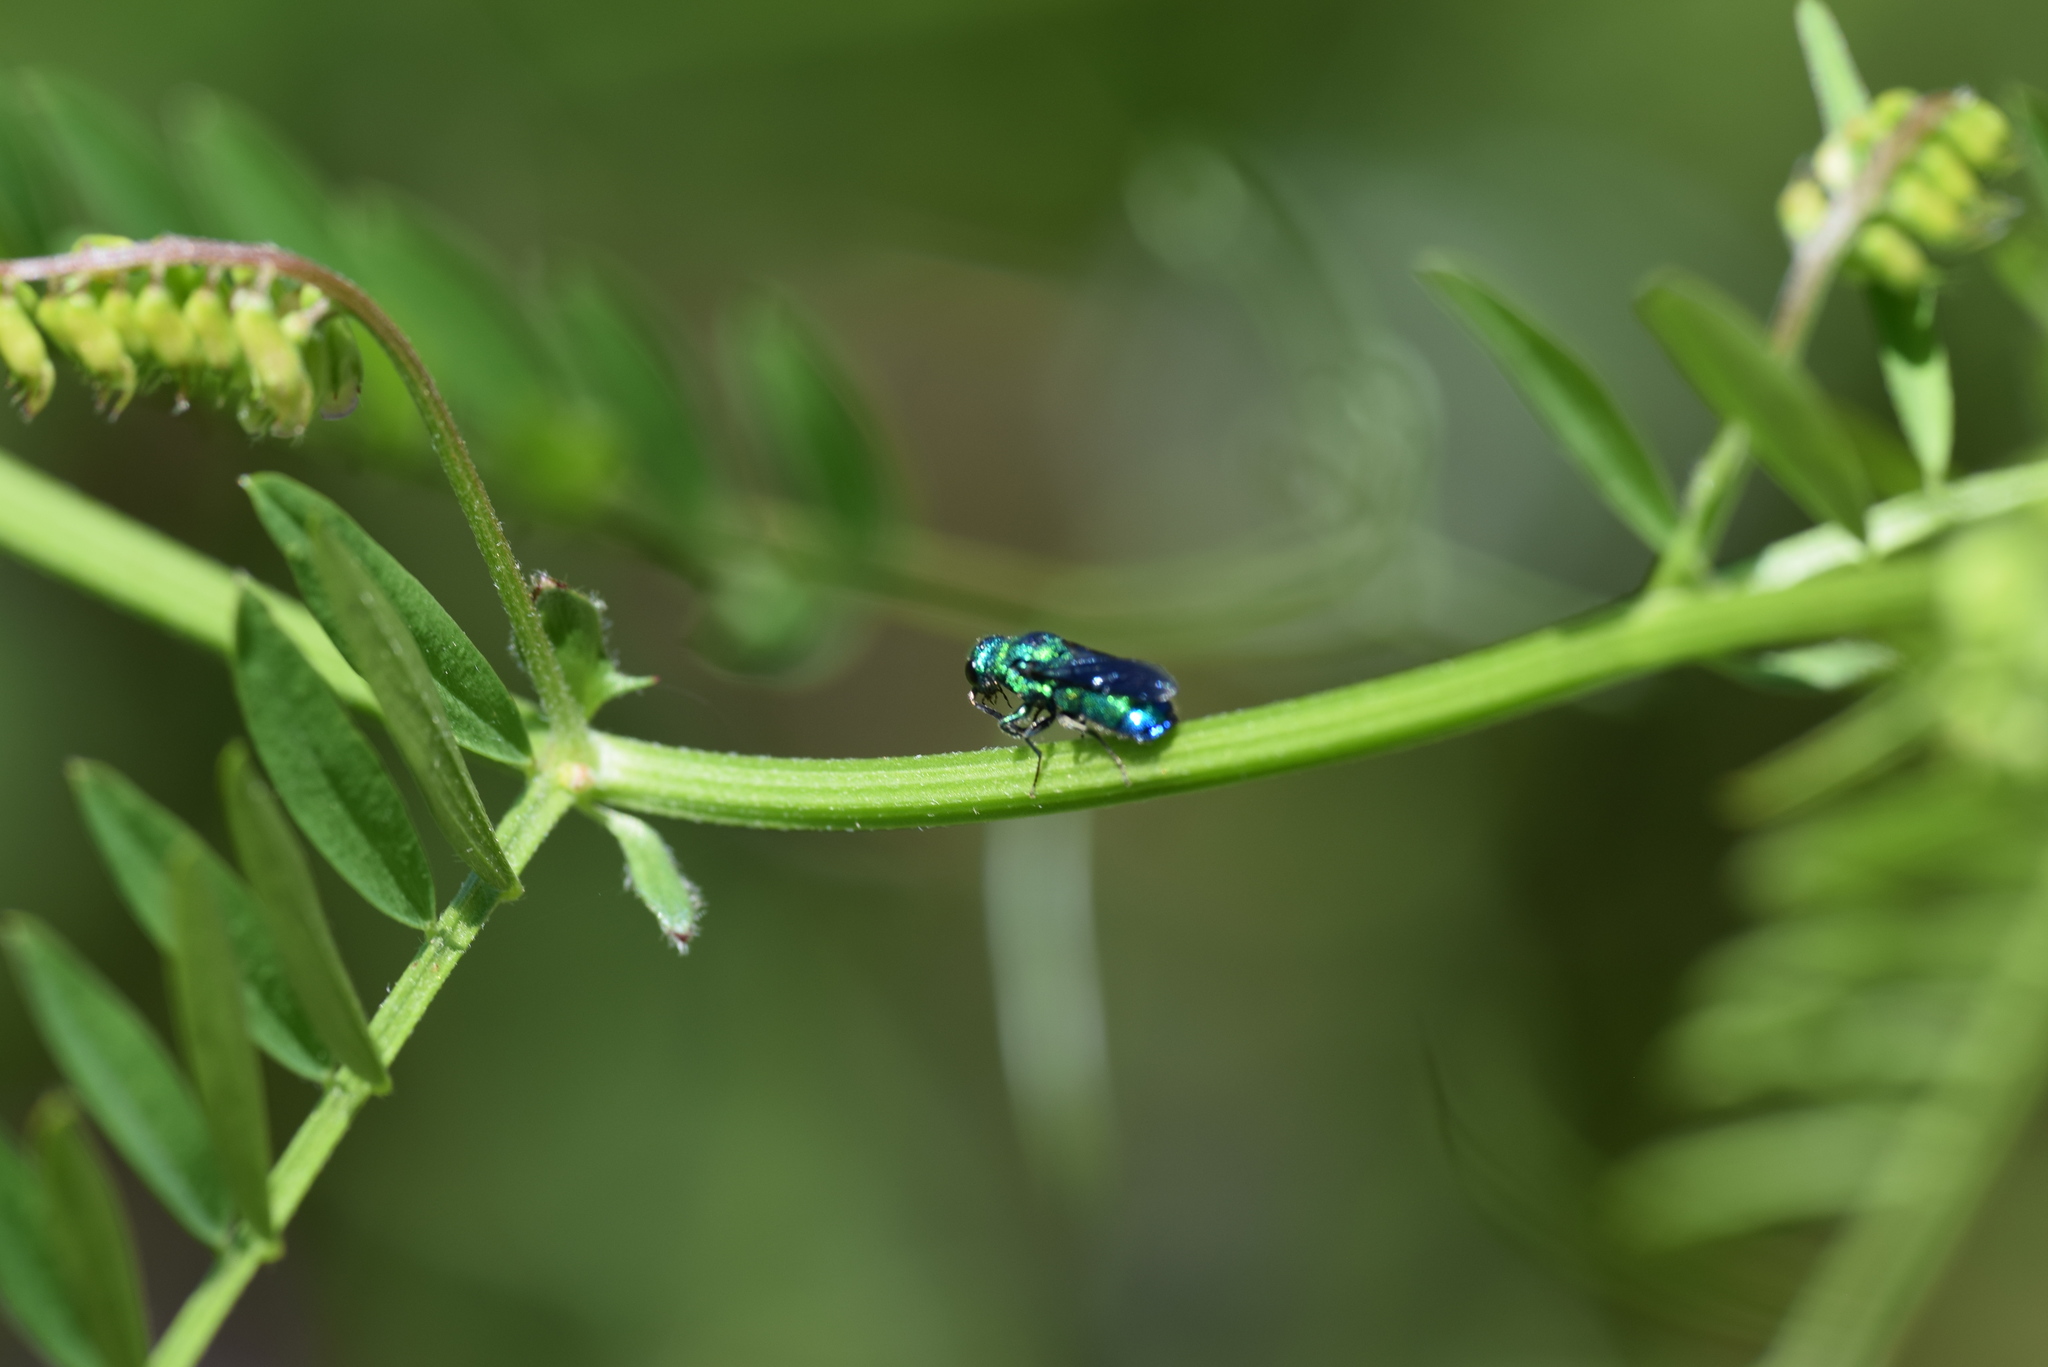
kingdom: Animalia
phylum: Arthropoda
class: Insecta
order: Hymenoptera
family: Chrysididae
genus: Chrysis
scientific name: Chrysis angolensis
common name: Cuckoo wasp
